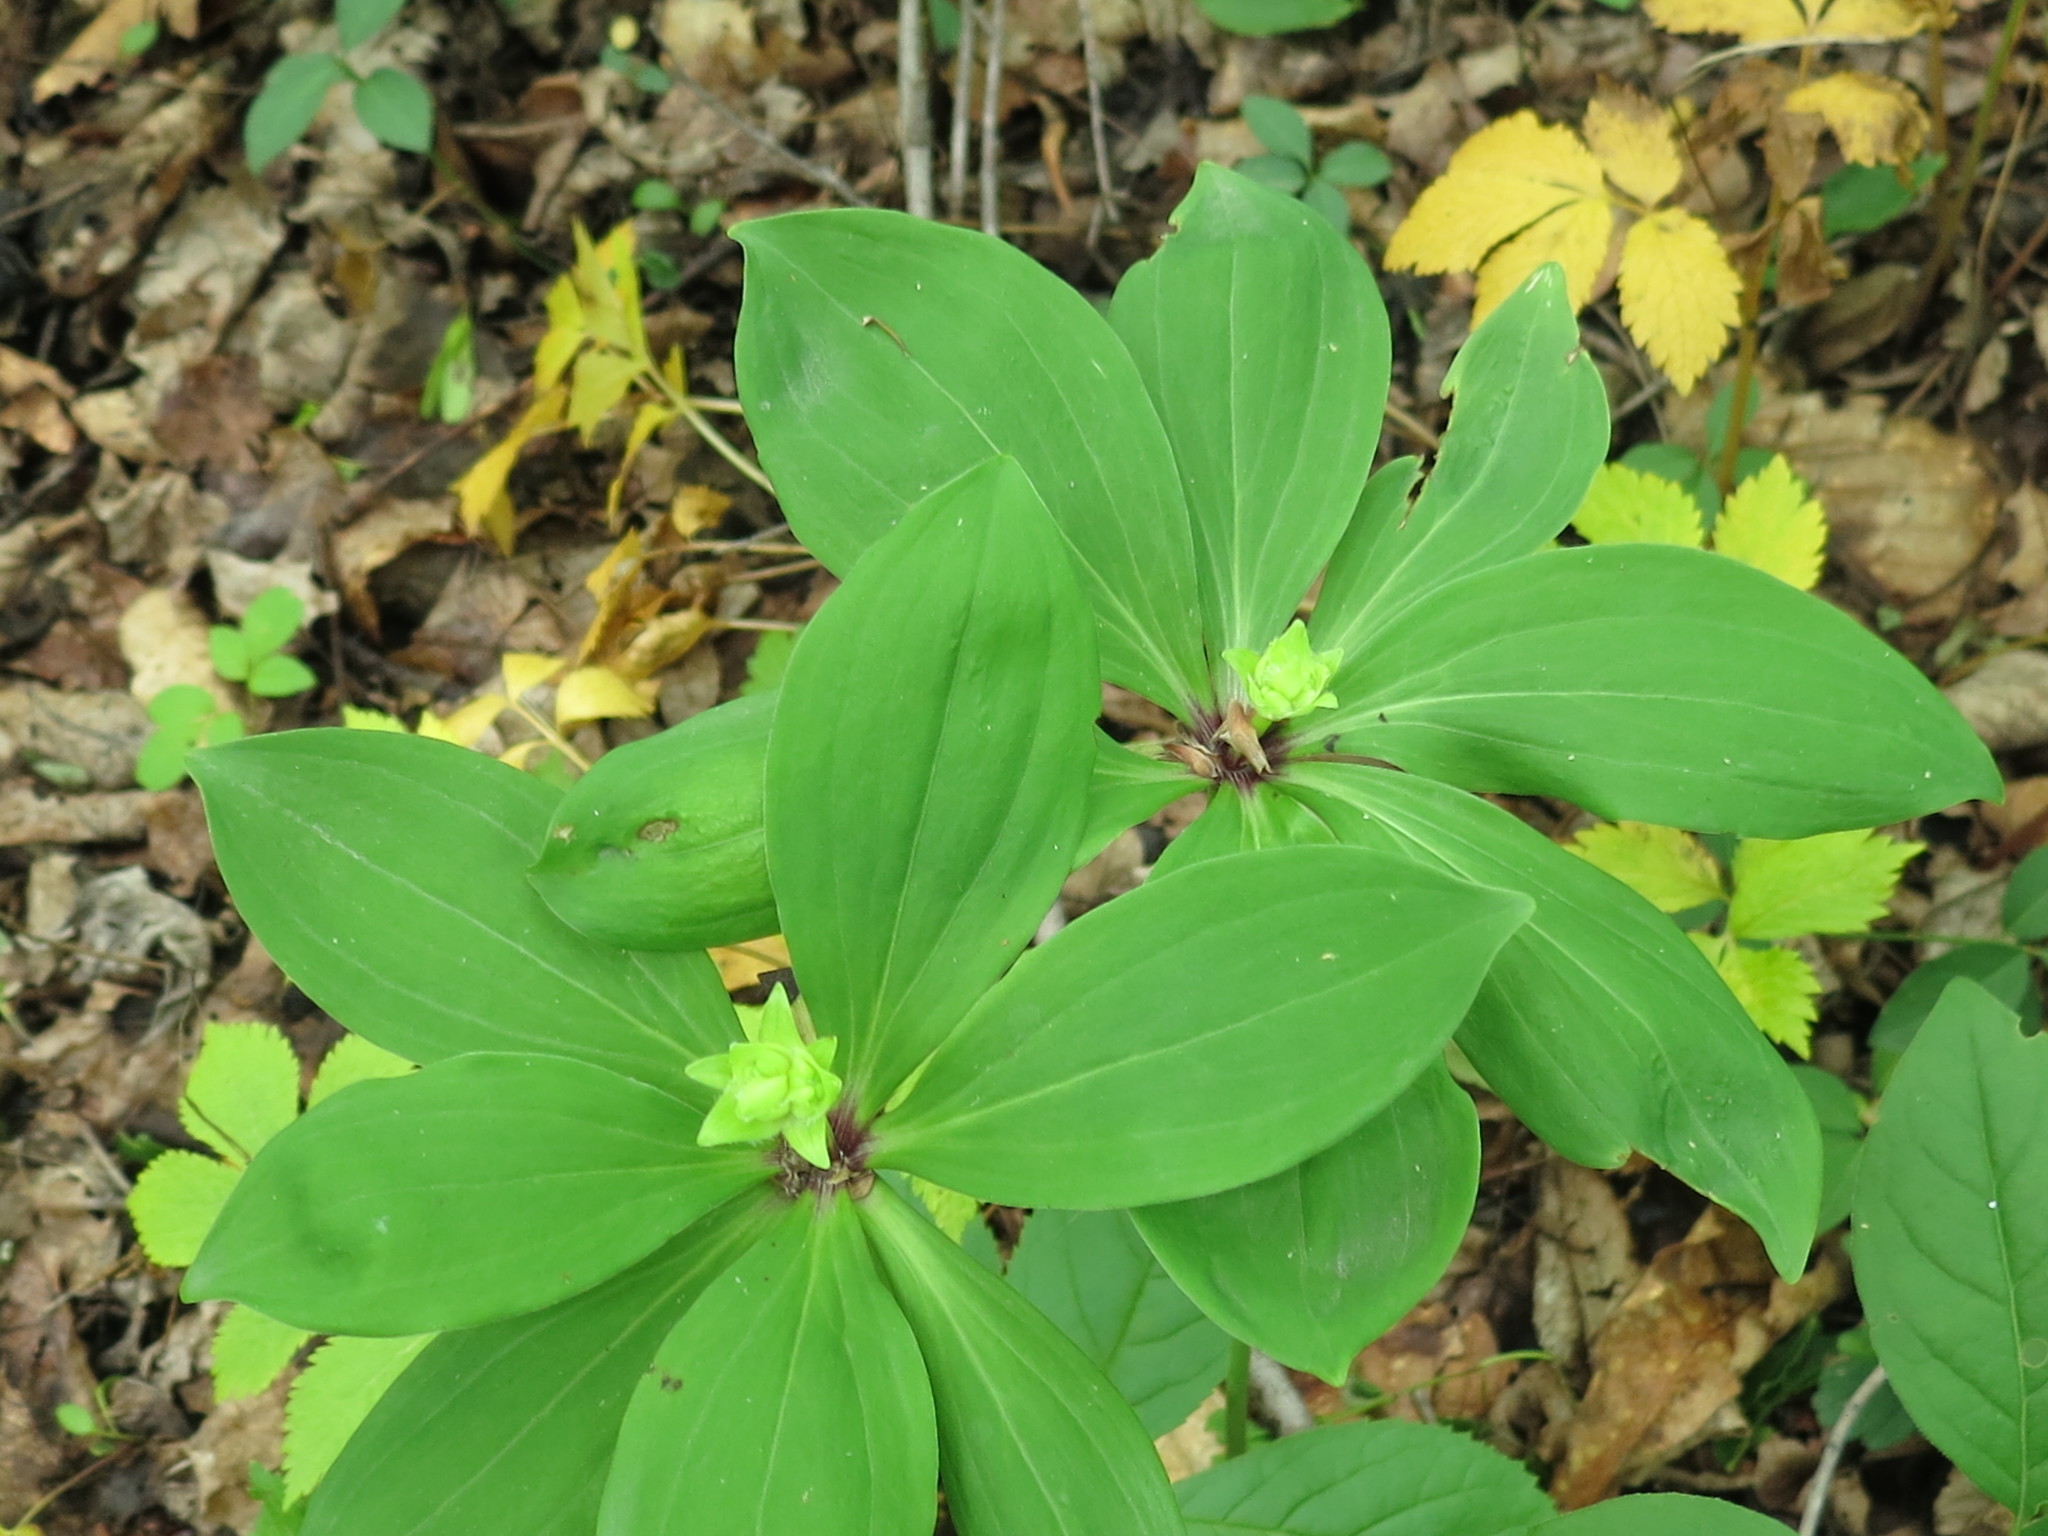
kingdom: Plantae
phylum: Tracheophyta
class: Liliopsida
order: Liliales
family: Liliaceae
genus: Lilium
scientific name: Lilium distichum
